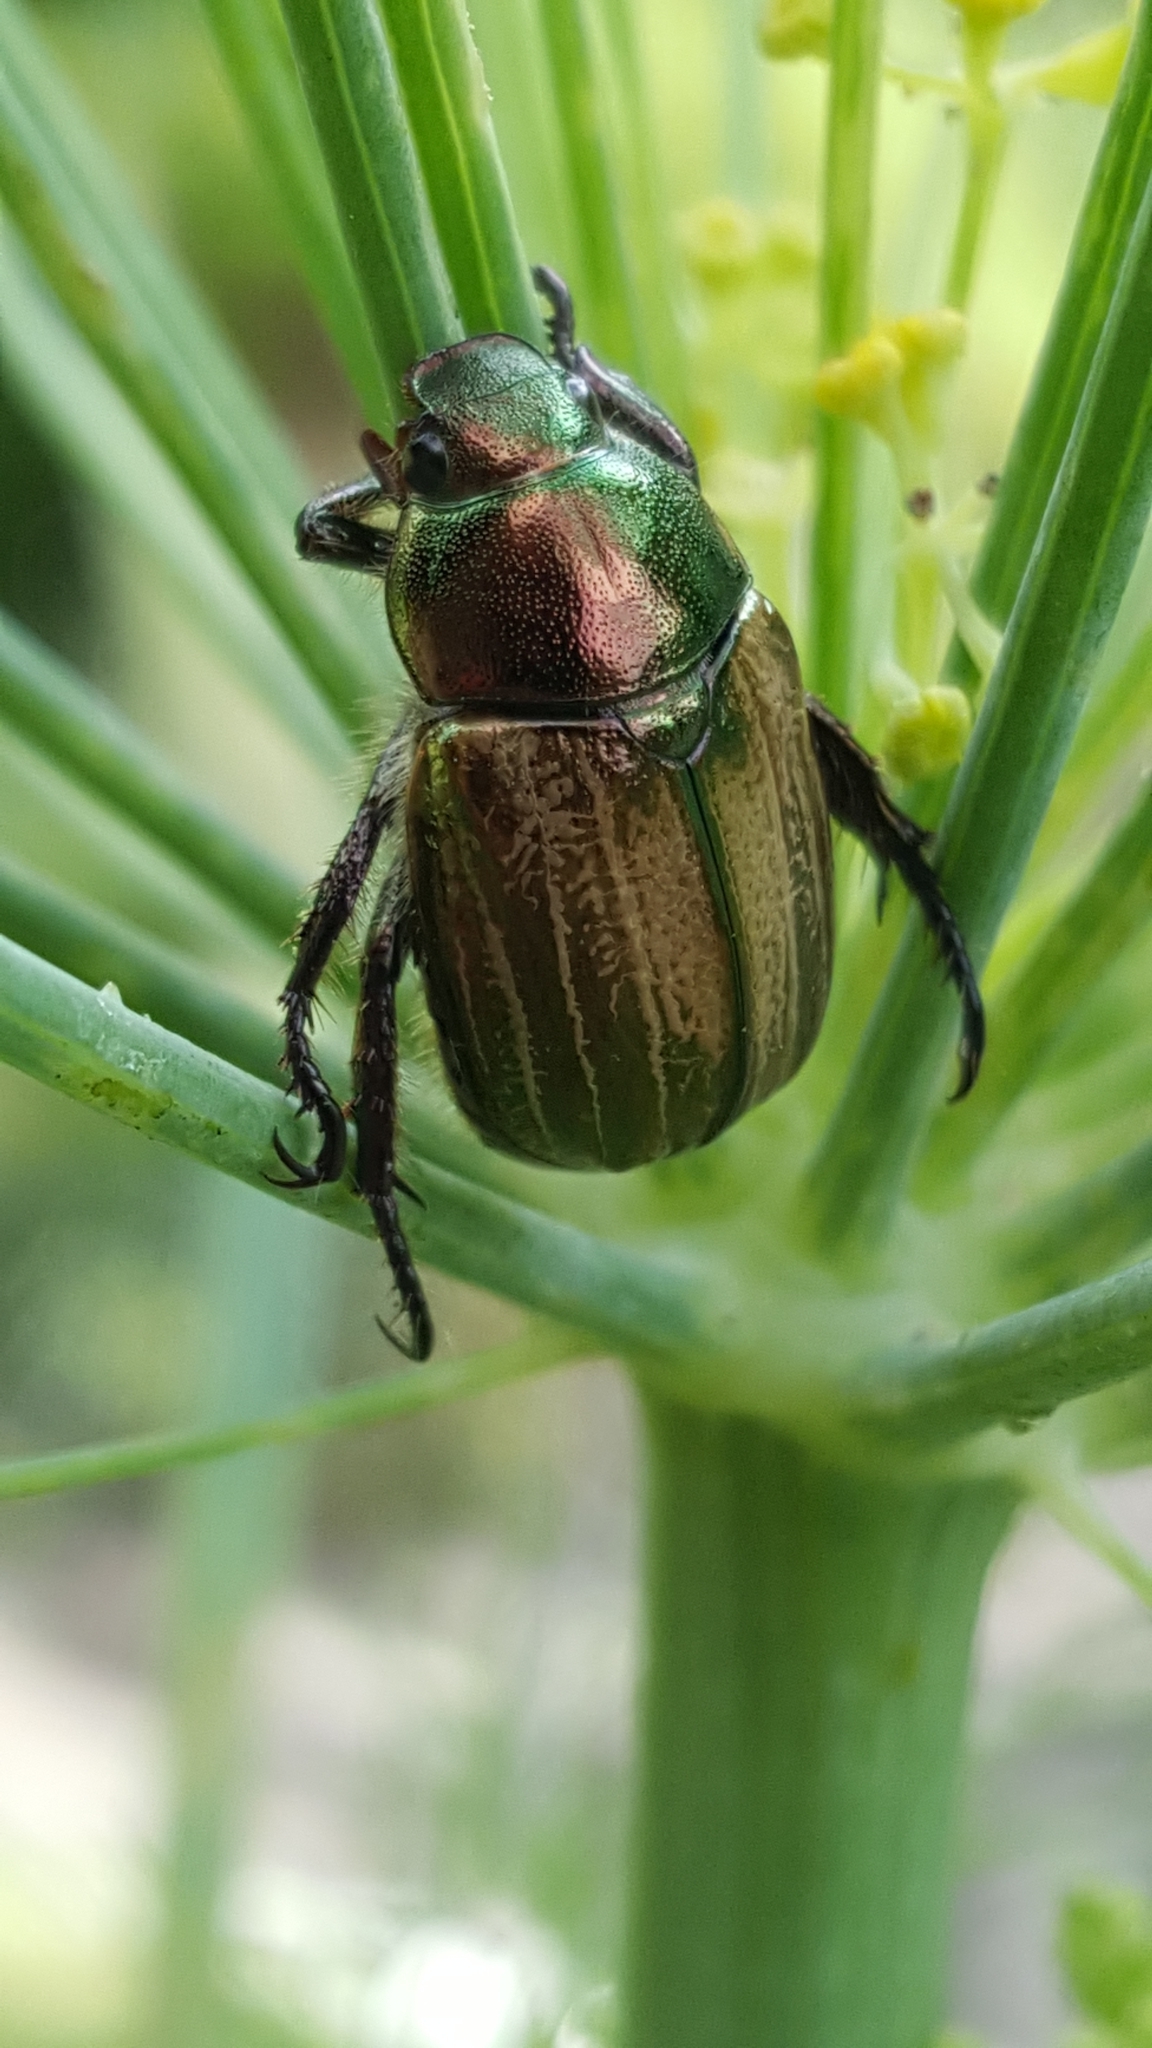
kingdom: Animalia
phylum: Arthropoda
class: Insecta
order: Coleoptera
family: Scarabaeidae
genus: Mimela
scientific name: Mimela junii
